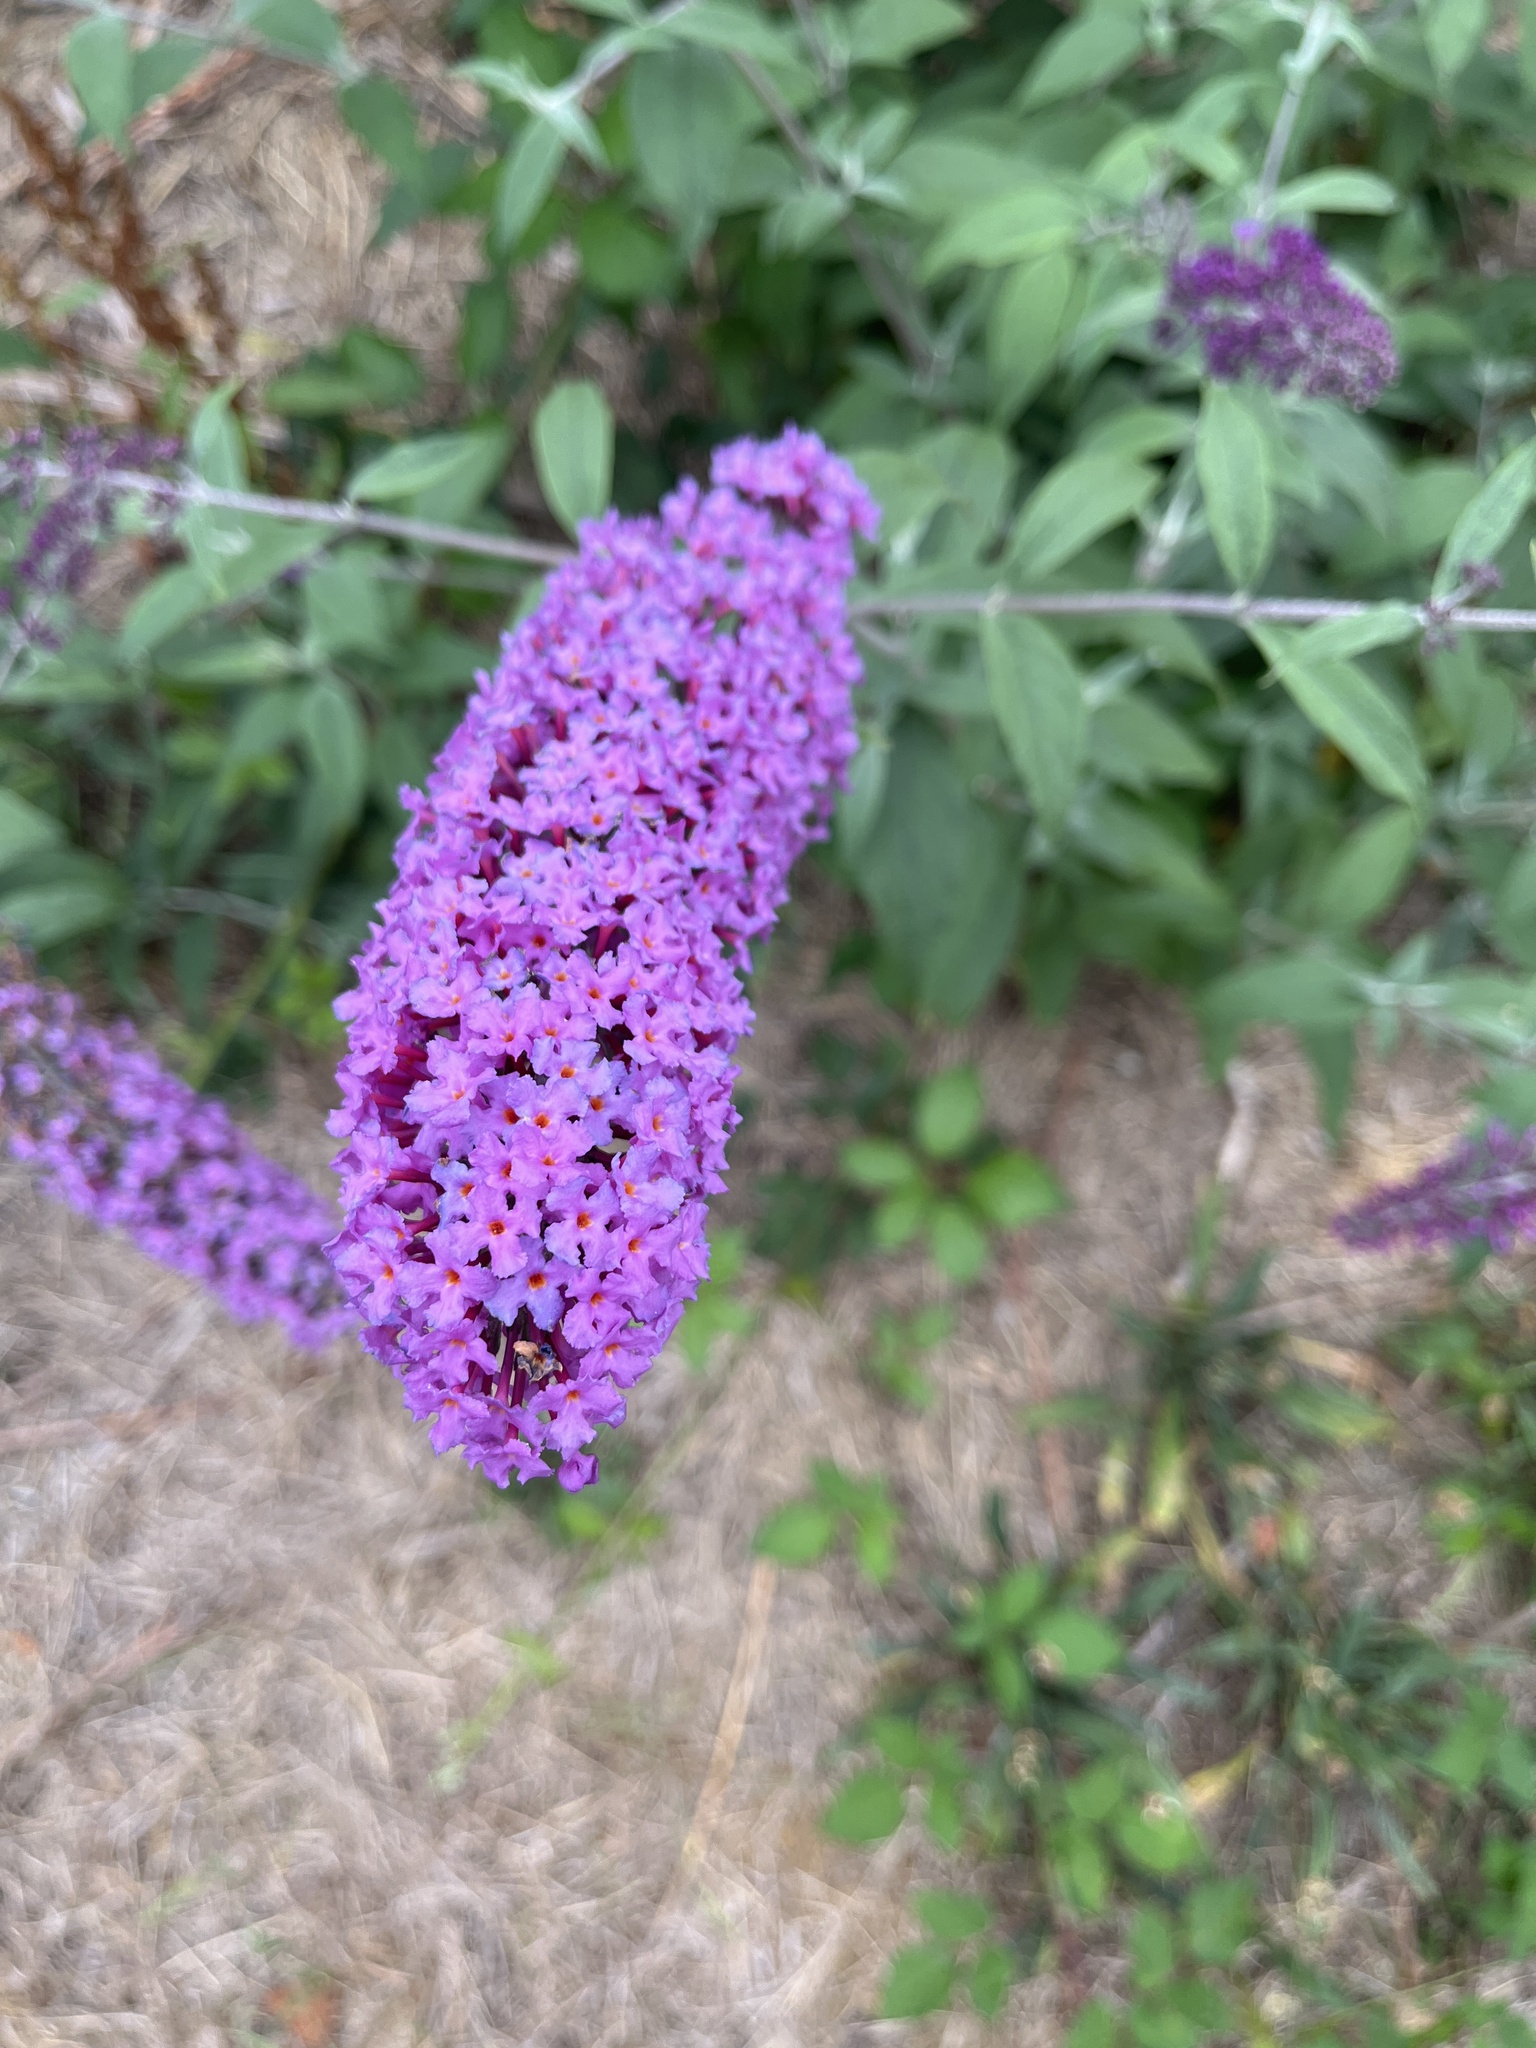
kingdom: Plantae
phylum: Tracheophyta
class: Magnoliopsida
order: Lamiales
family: Scrophulariaceae
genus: Buddleja
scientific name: Buddleja davidii
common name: Butterfly-bush
